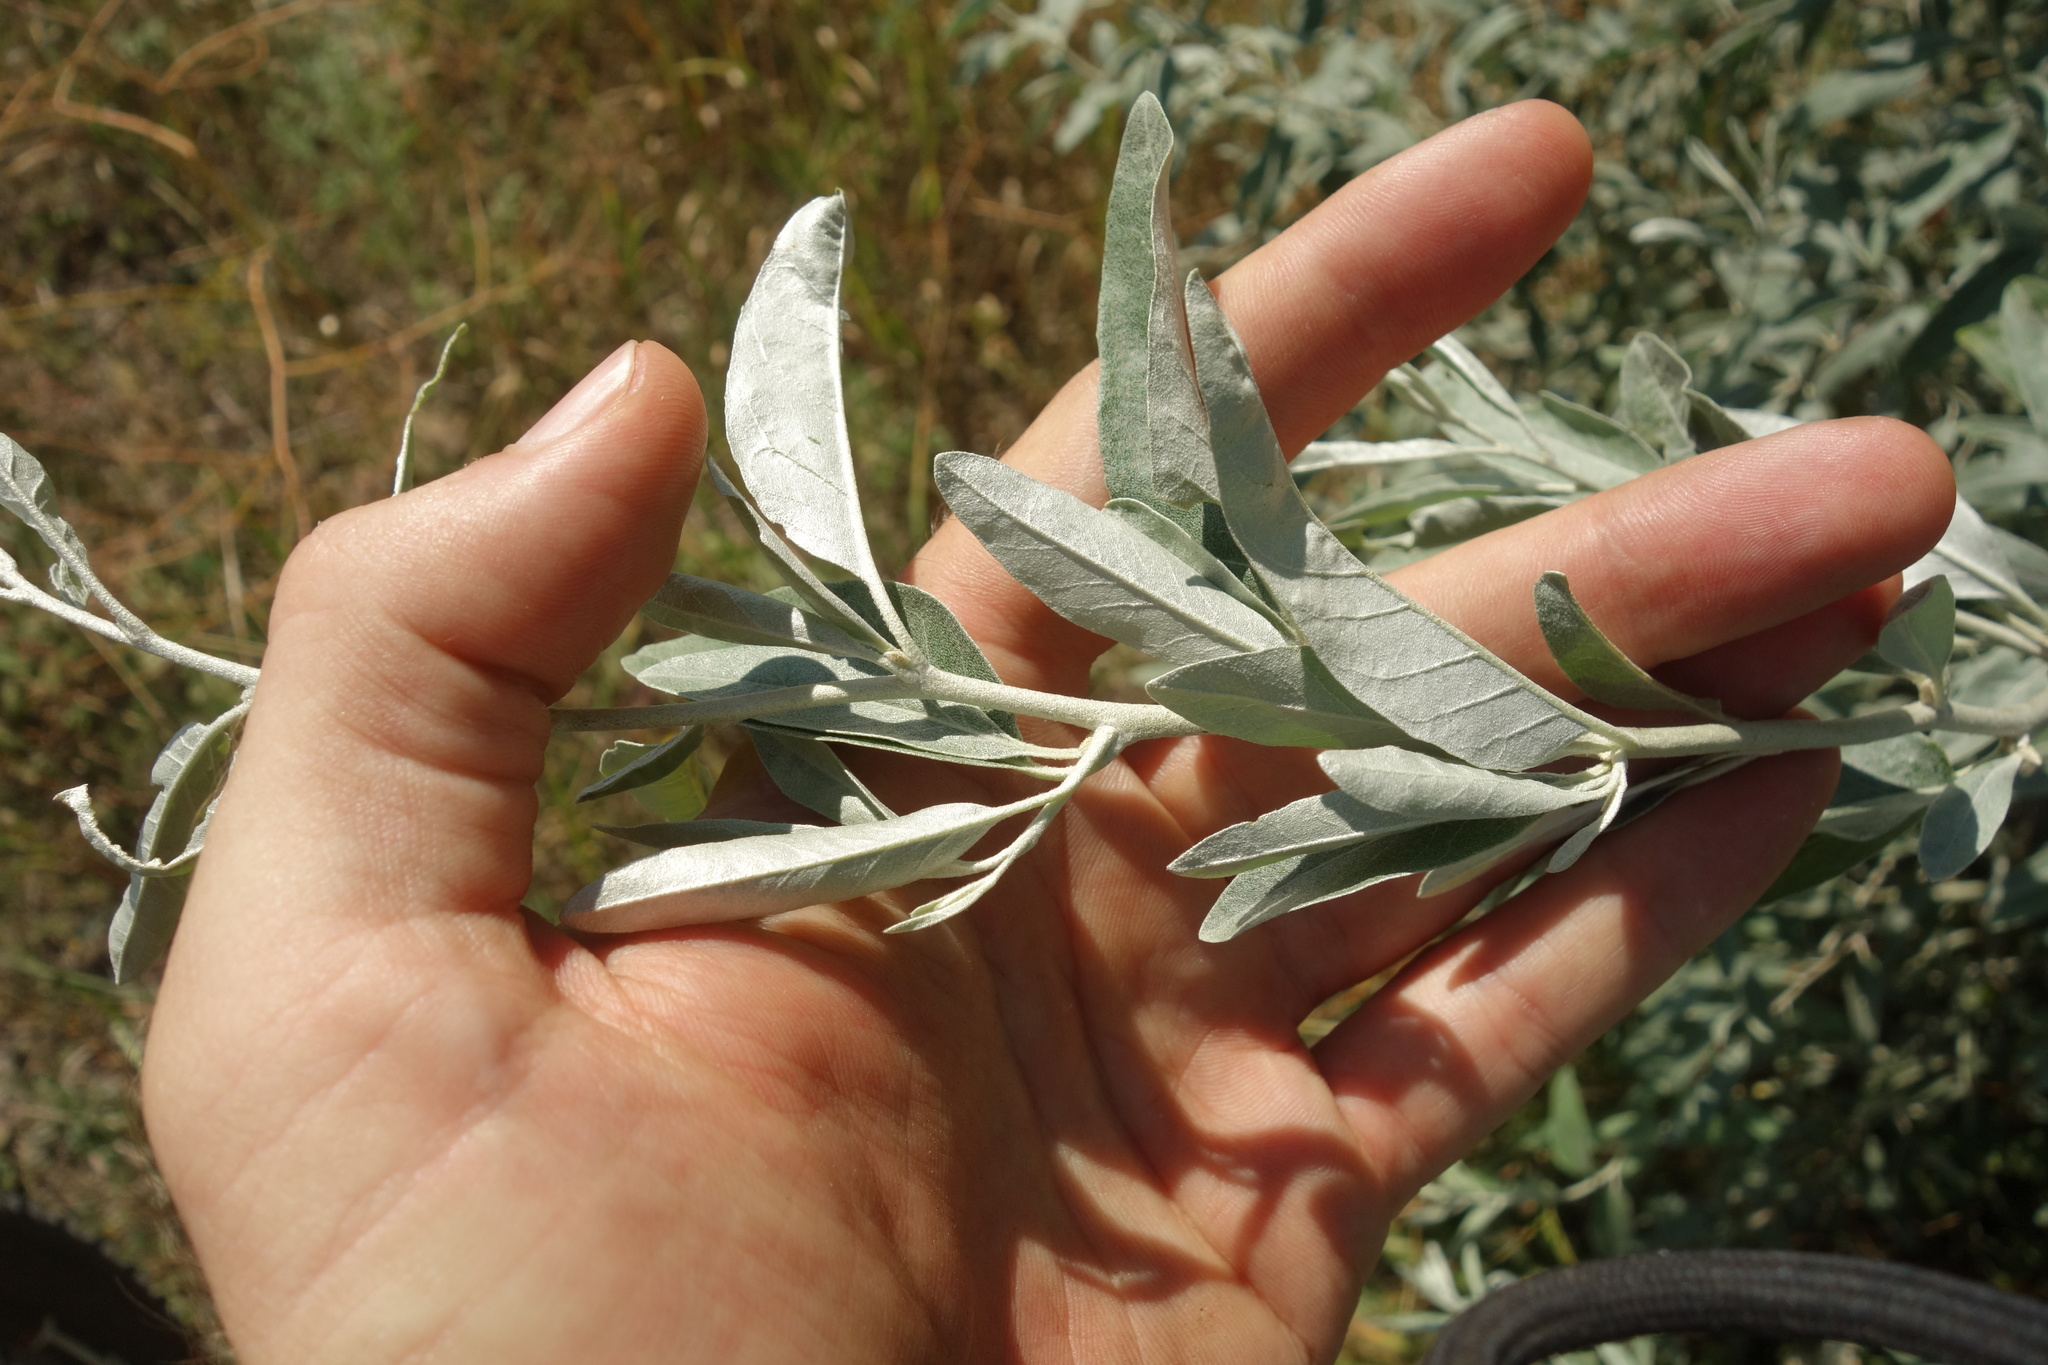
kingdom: Plantae
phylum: Tracheophyta
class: Magnoliopsida
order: Rosales
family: Elaeagnaceae
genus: Elaeagnus
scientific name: Elaeagnus angustifolia
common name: Russian olive
